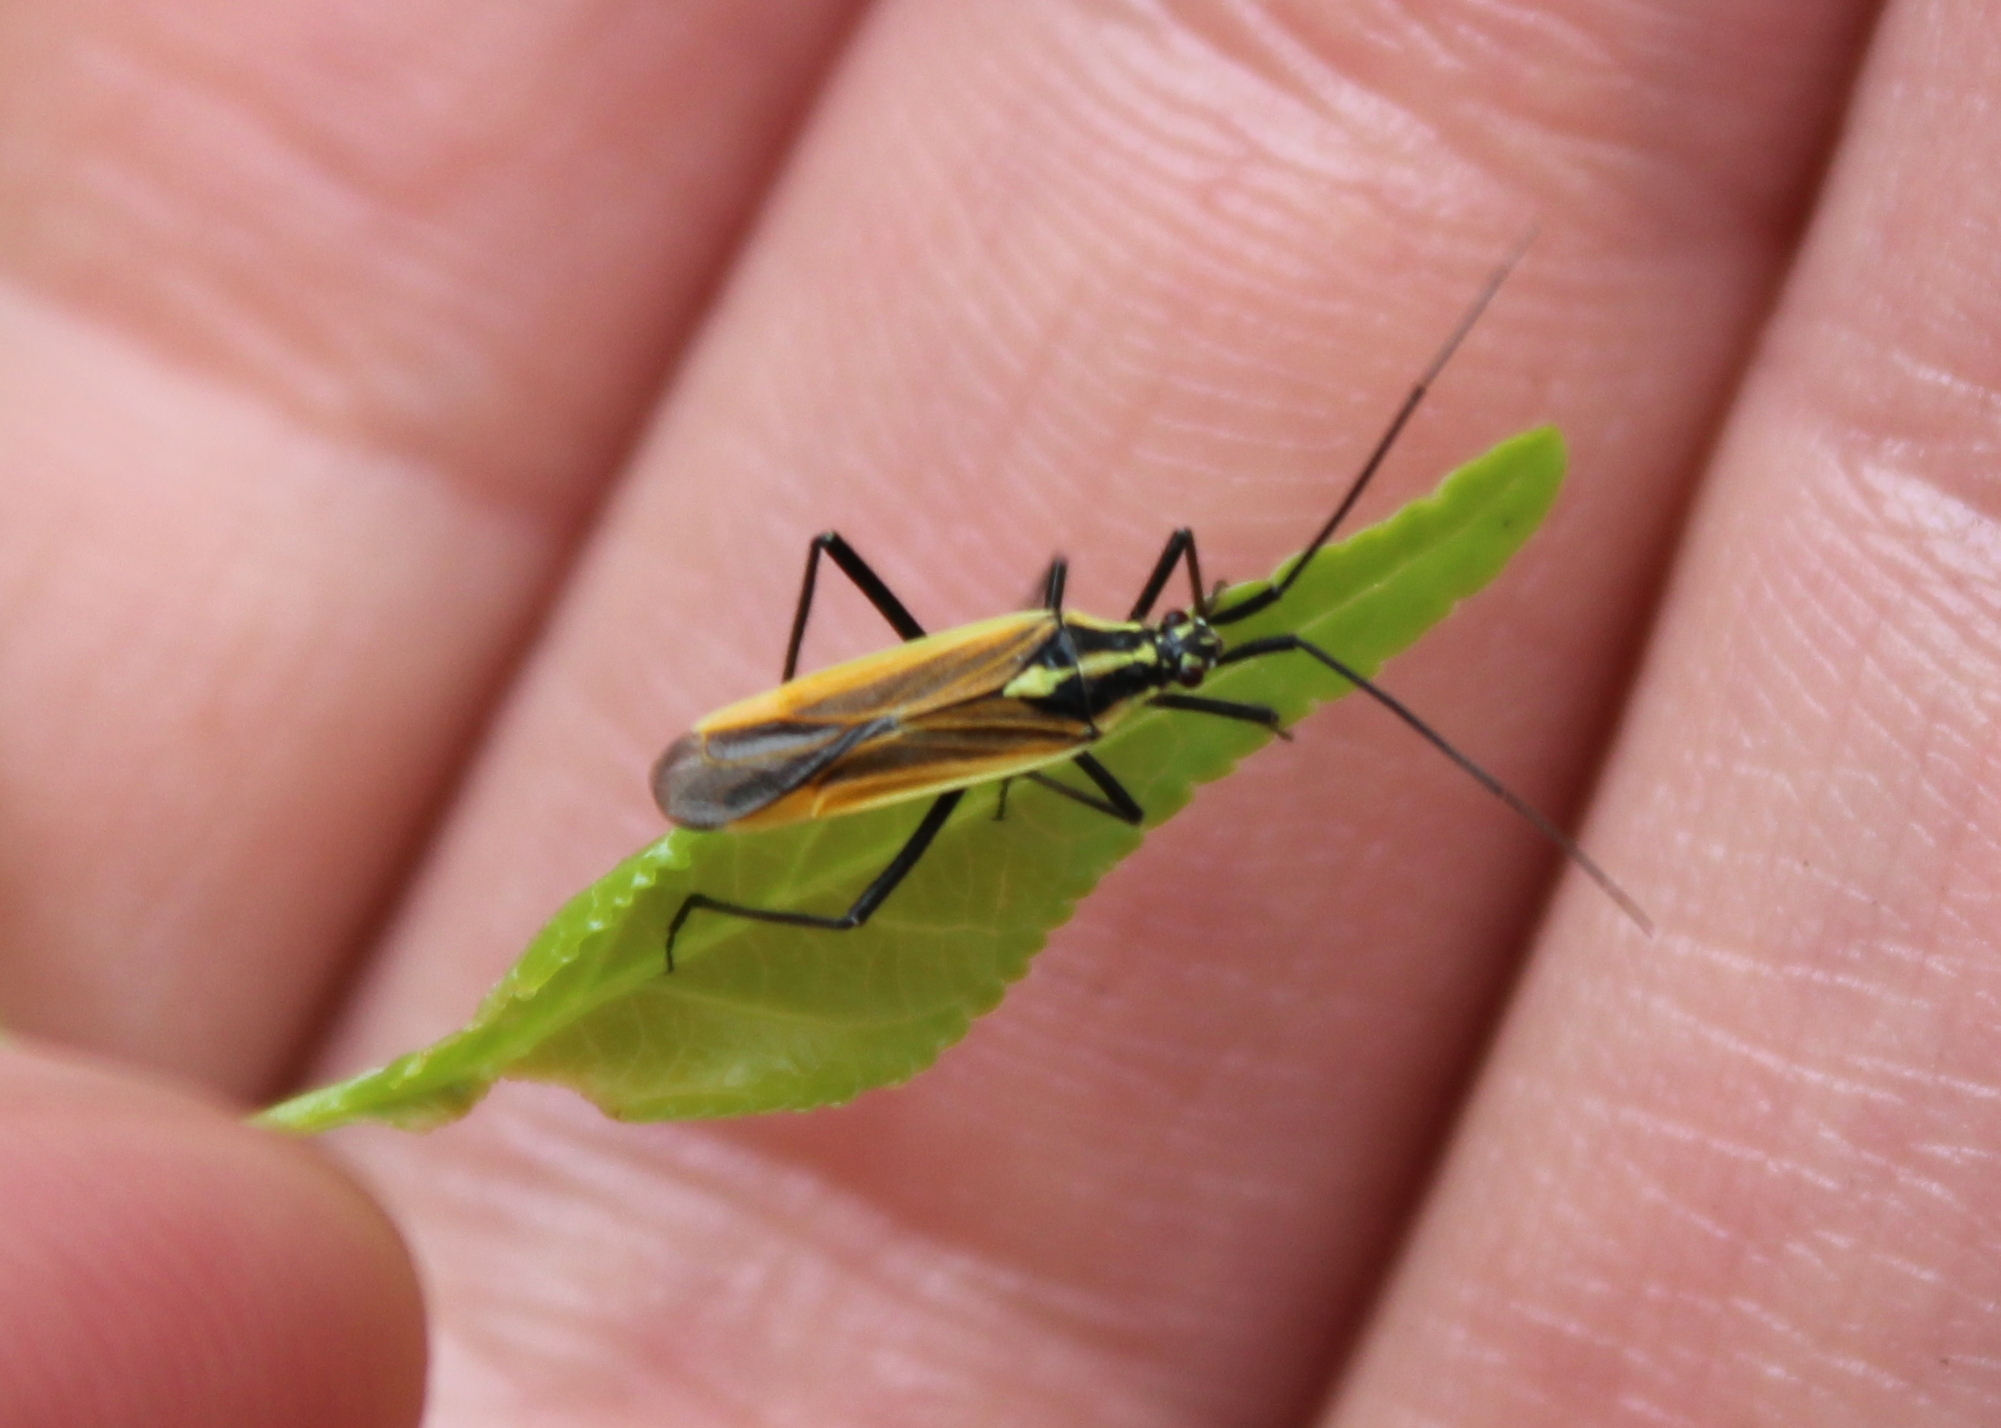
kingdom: Animalia
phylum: Arthropoda
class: Insecta
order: Hemiptera
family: Miridae
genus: Leptopterna
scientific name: Leptopterna dolabrata
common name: Meadow plant bug
